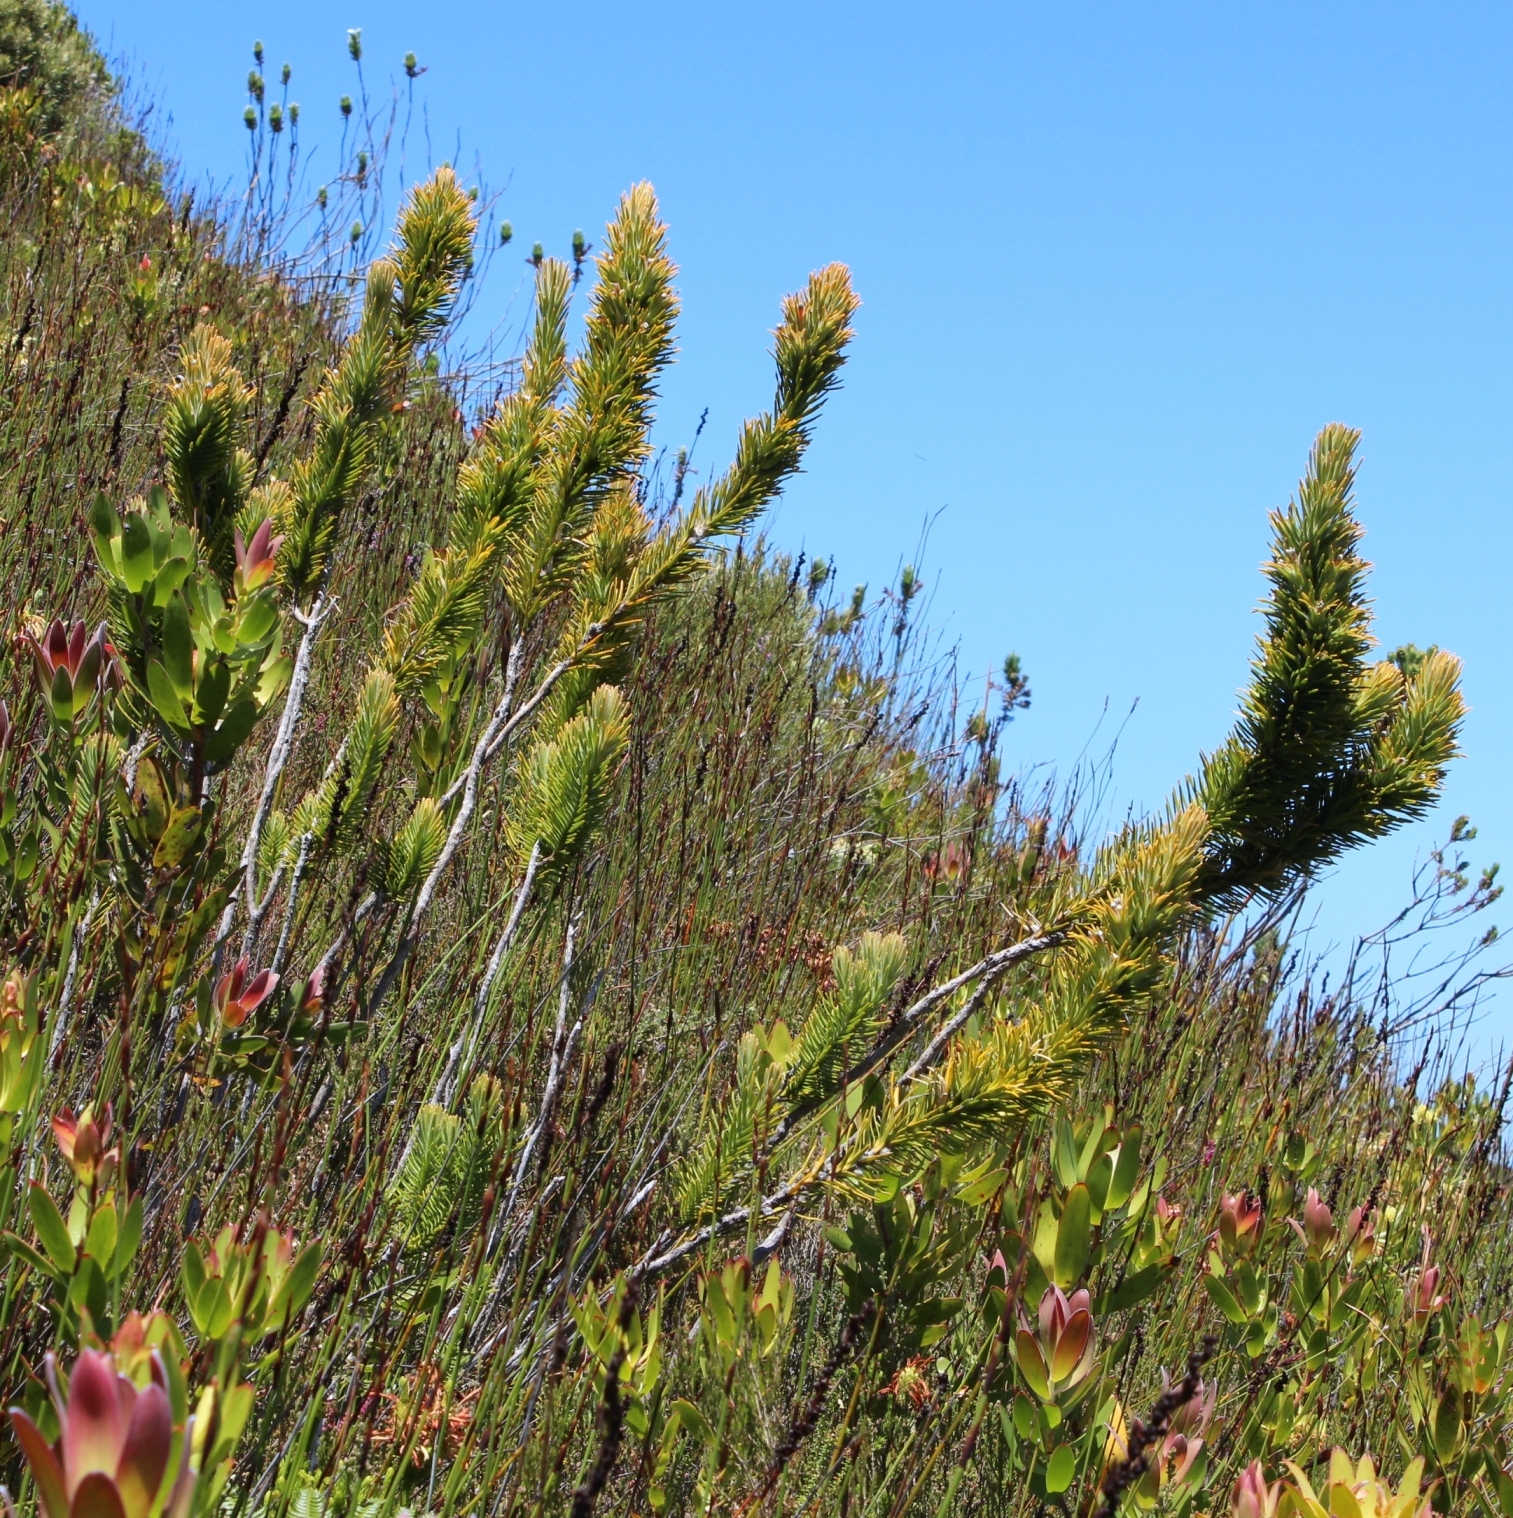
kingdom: Plantae
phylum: Tracheophyta
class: Magnoliopsida
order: Lamiales
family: Stilbaceae
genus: Retzia
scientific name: Retzia capensis
